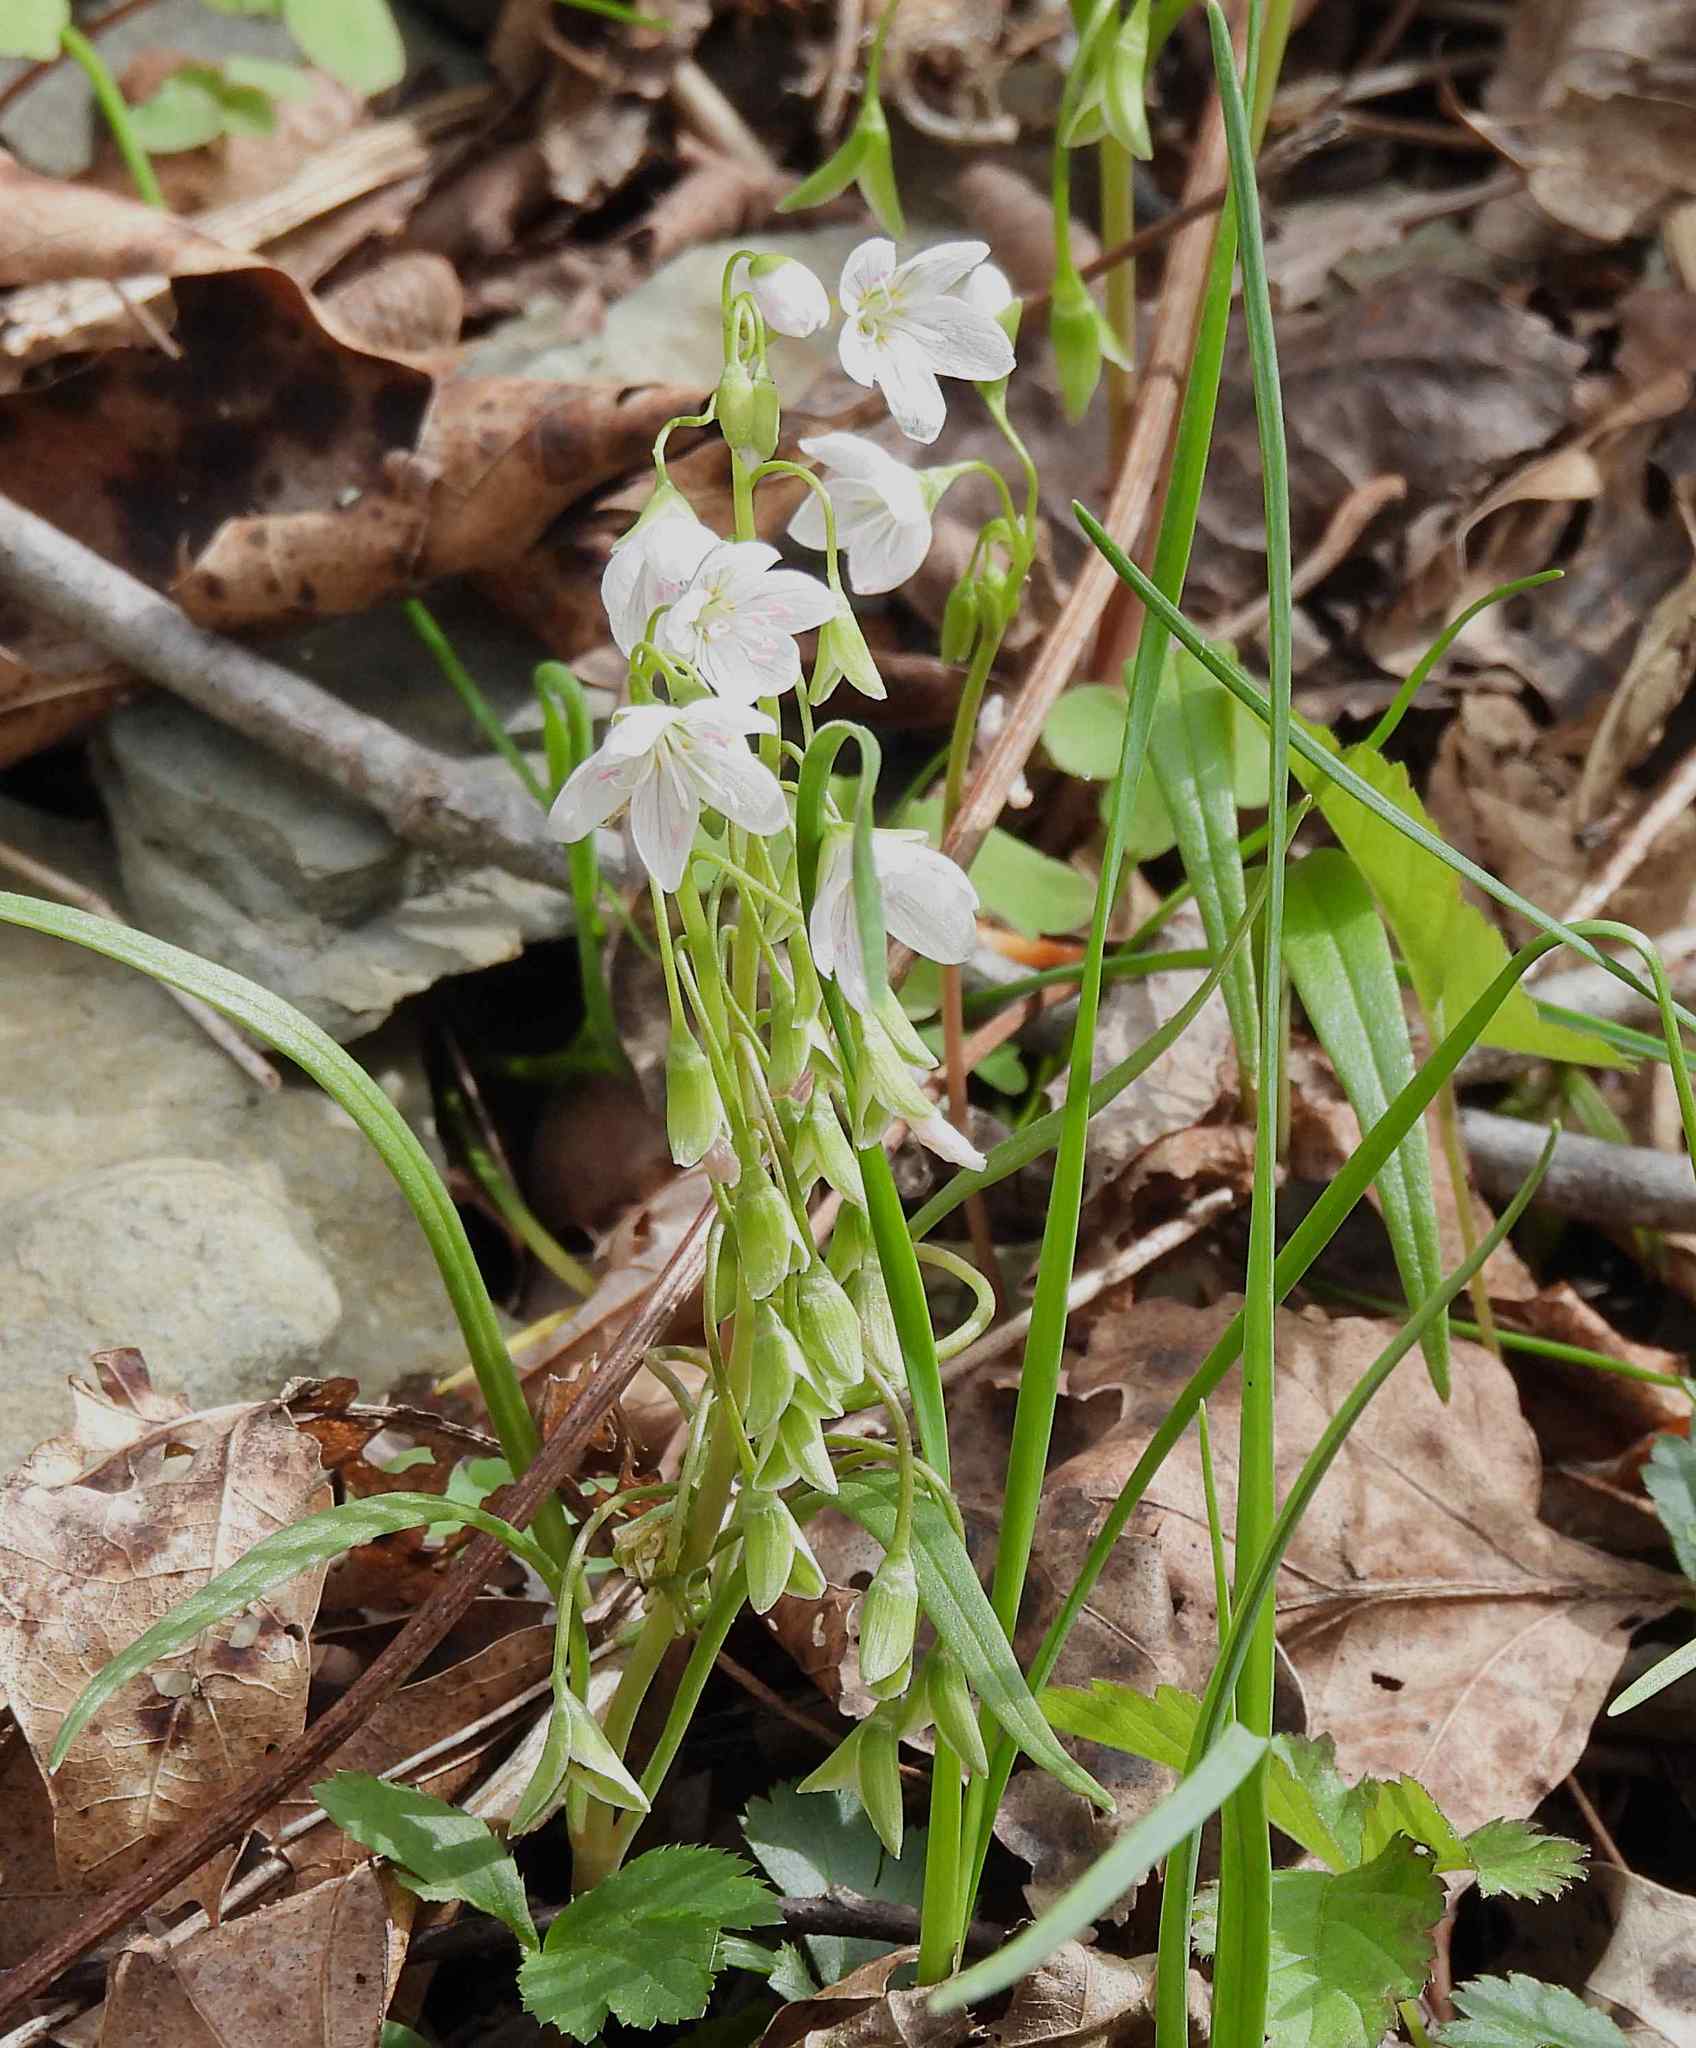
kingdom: Plantae
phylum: Tracheophyta
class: Magnoliopsida
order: Caryophyllales
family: Montiaceae
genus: Claytonia
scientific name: Claytonia virginica
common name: Virginia springbeauty
